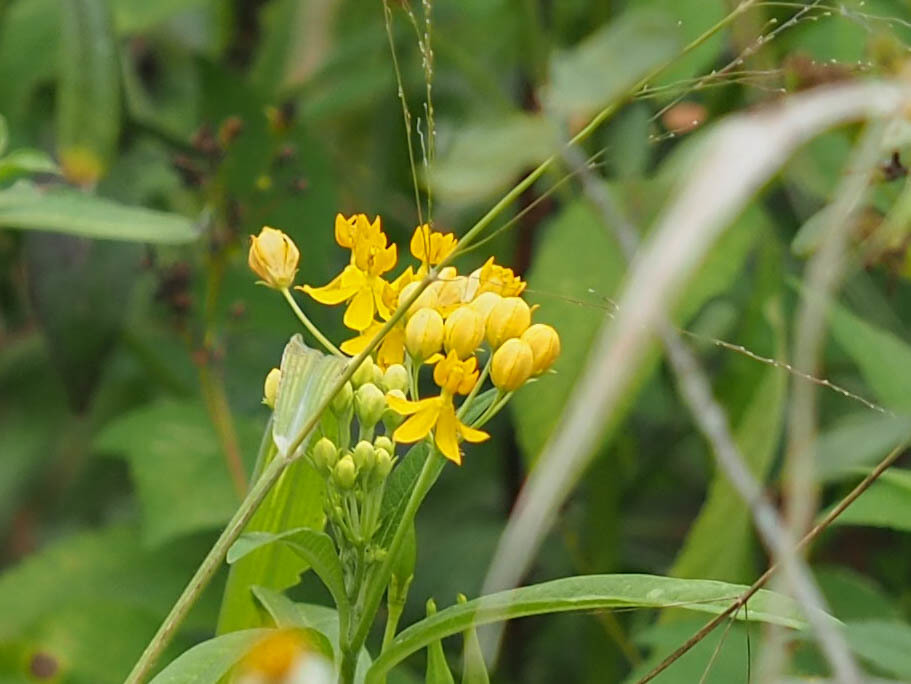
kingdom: Plantae
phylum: Tracheophyta
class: Magnoliopsida
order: Gentianales
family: Apocynaceae
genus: Asclepias
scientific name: Asclepias curassavica
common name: Bloodflower
